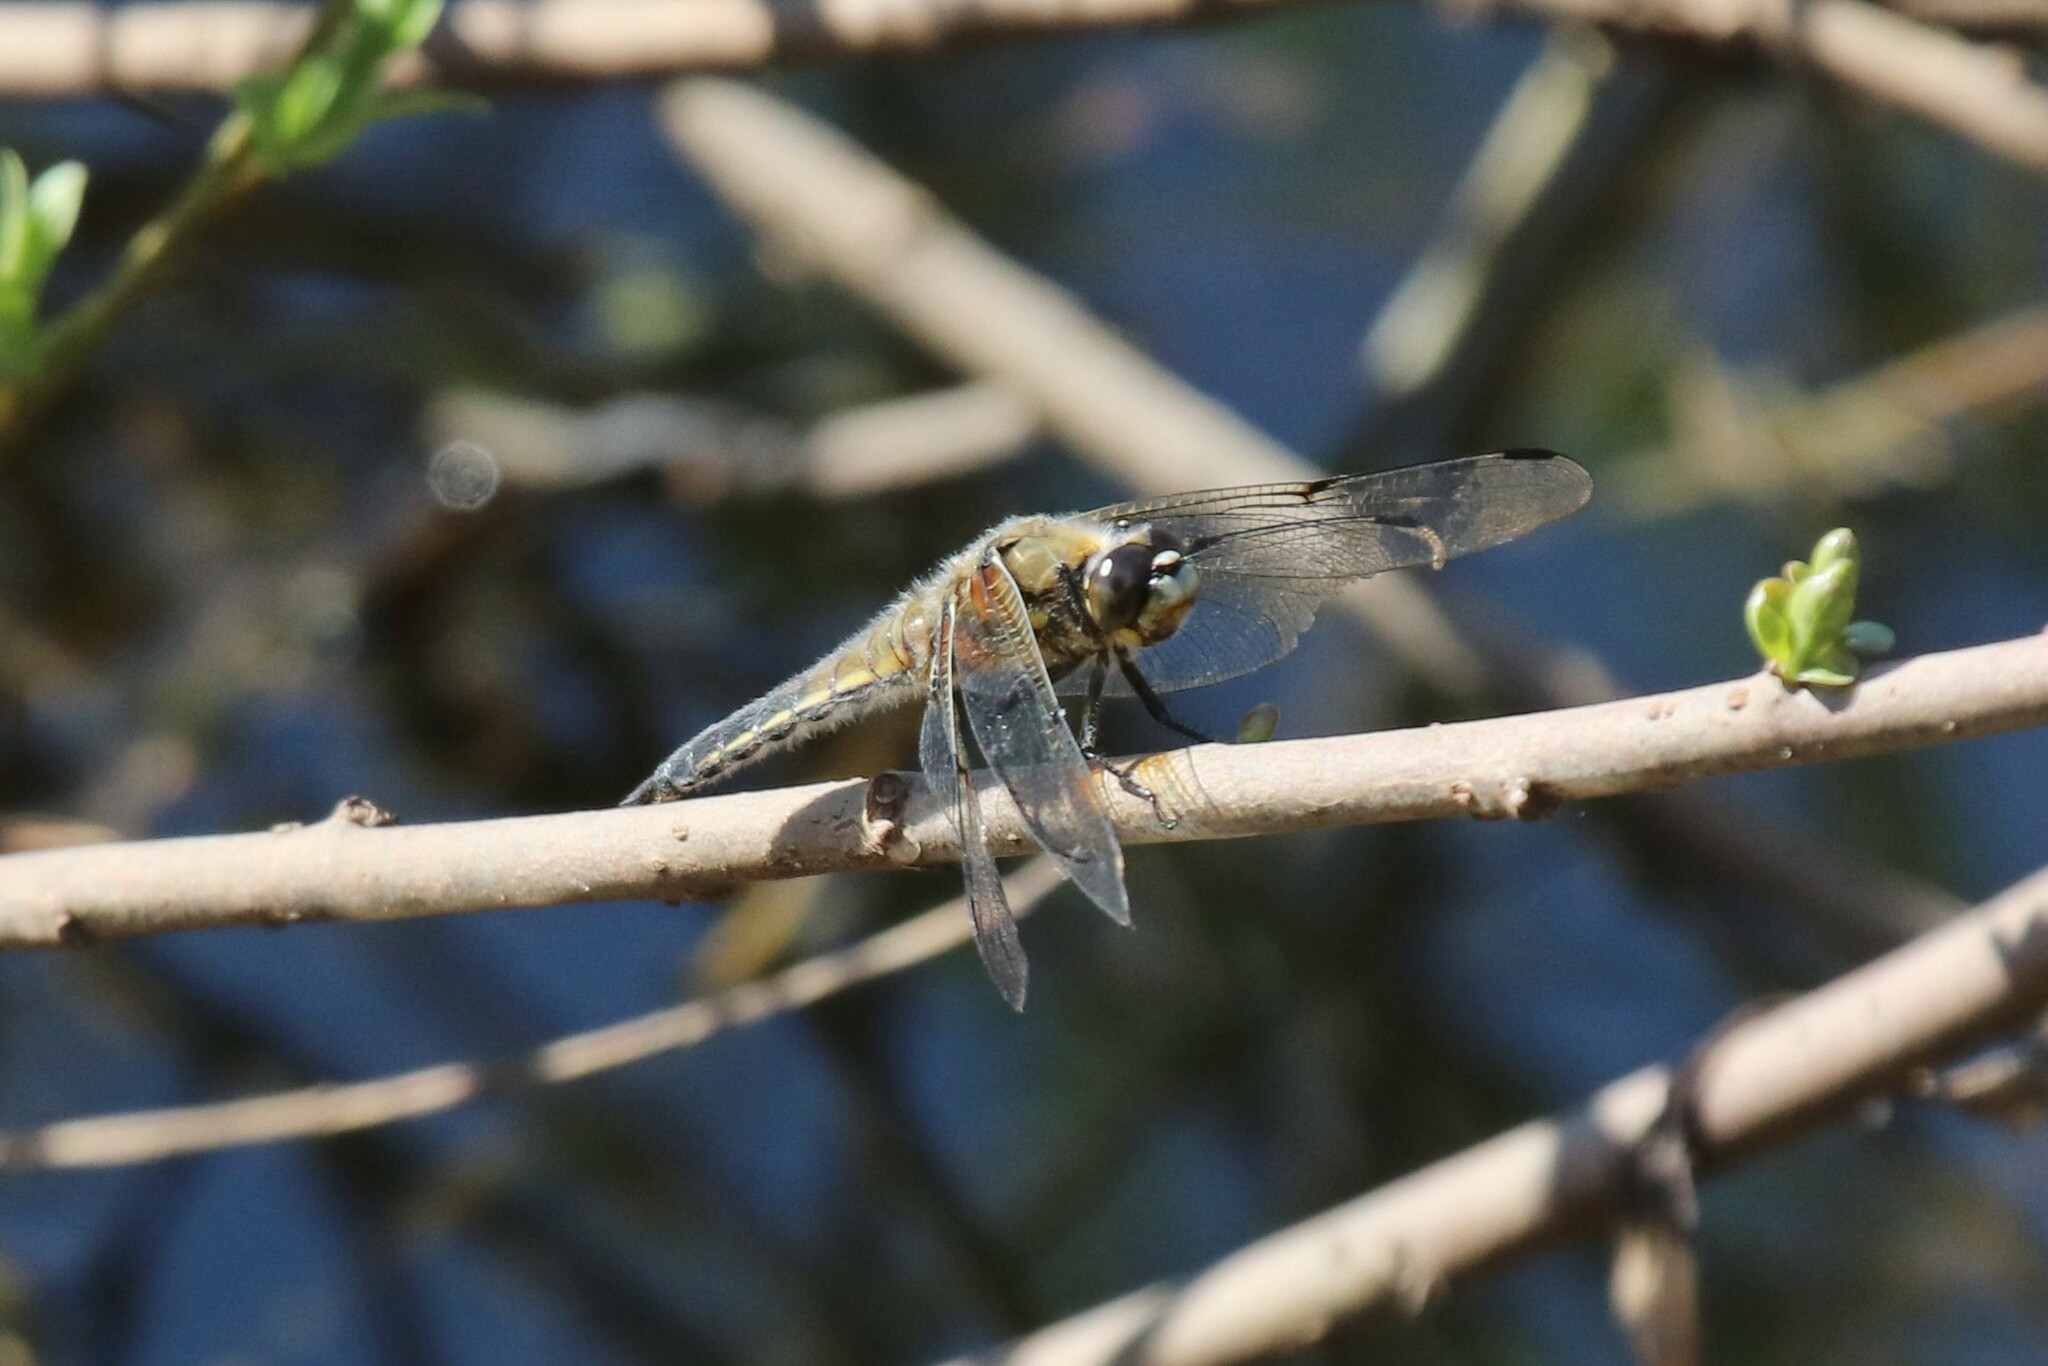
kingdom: Animalia
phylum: Arthropoda
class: Insecta
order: Odonata
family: Libellulidae
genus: Libellula
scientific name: Libellula quadrimaculata
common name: Four-spotted chaser
